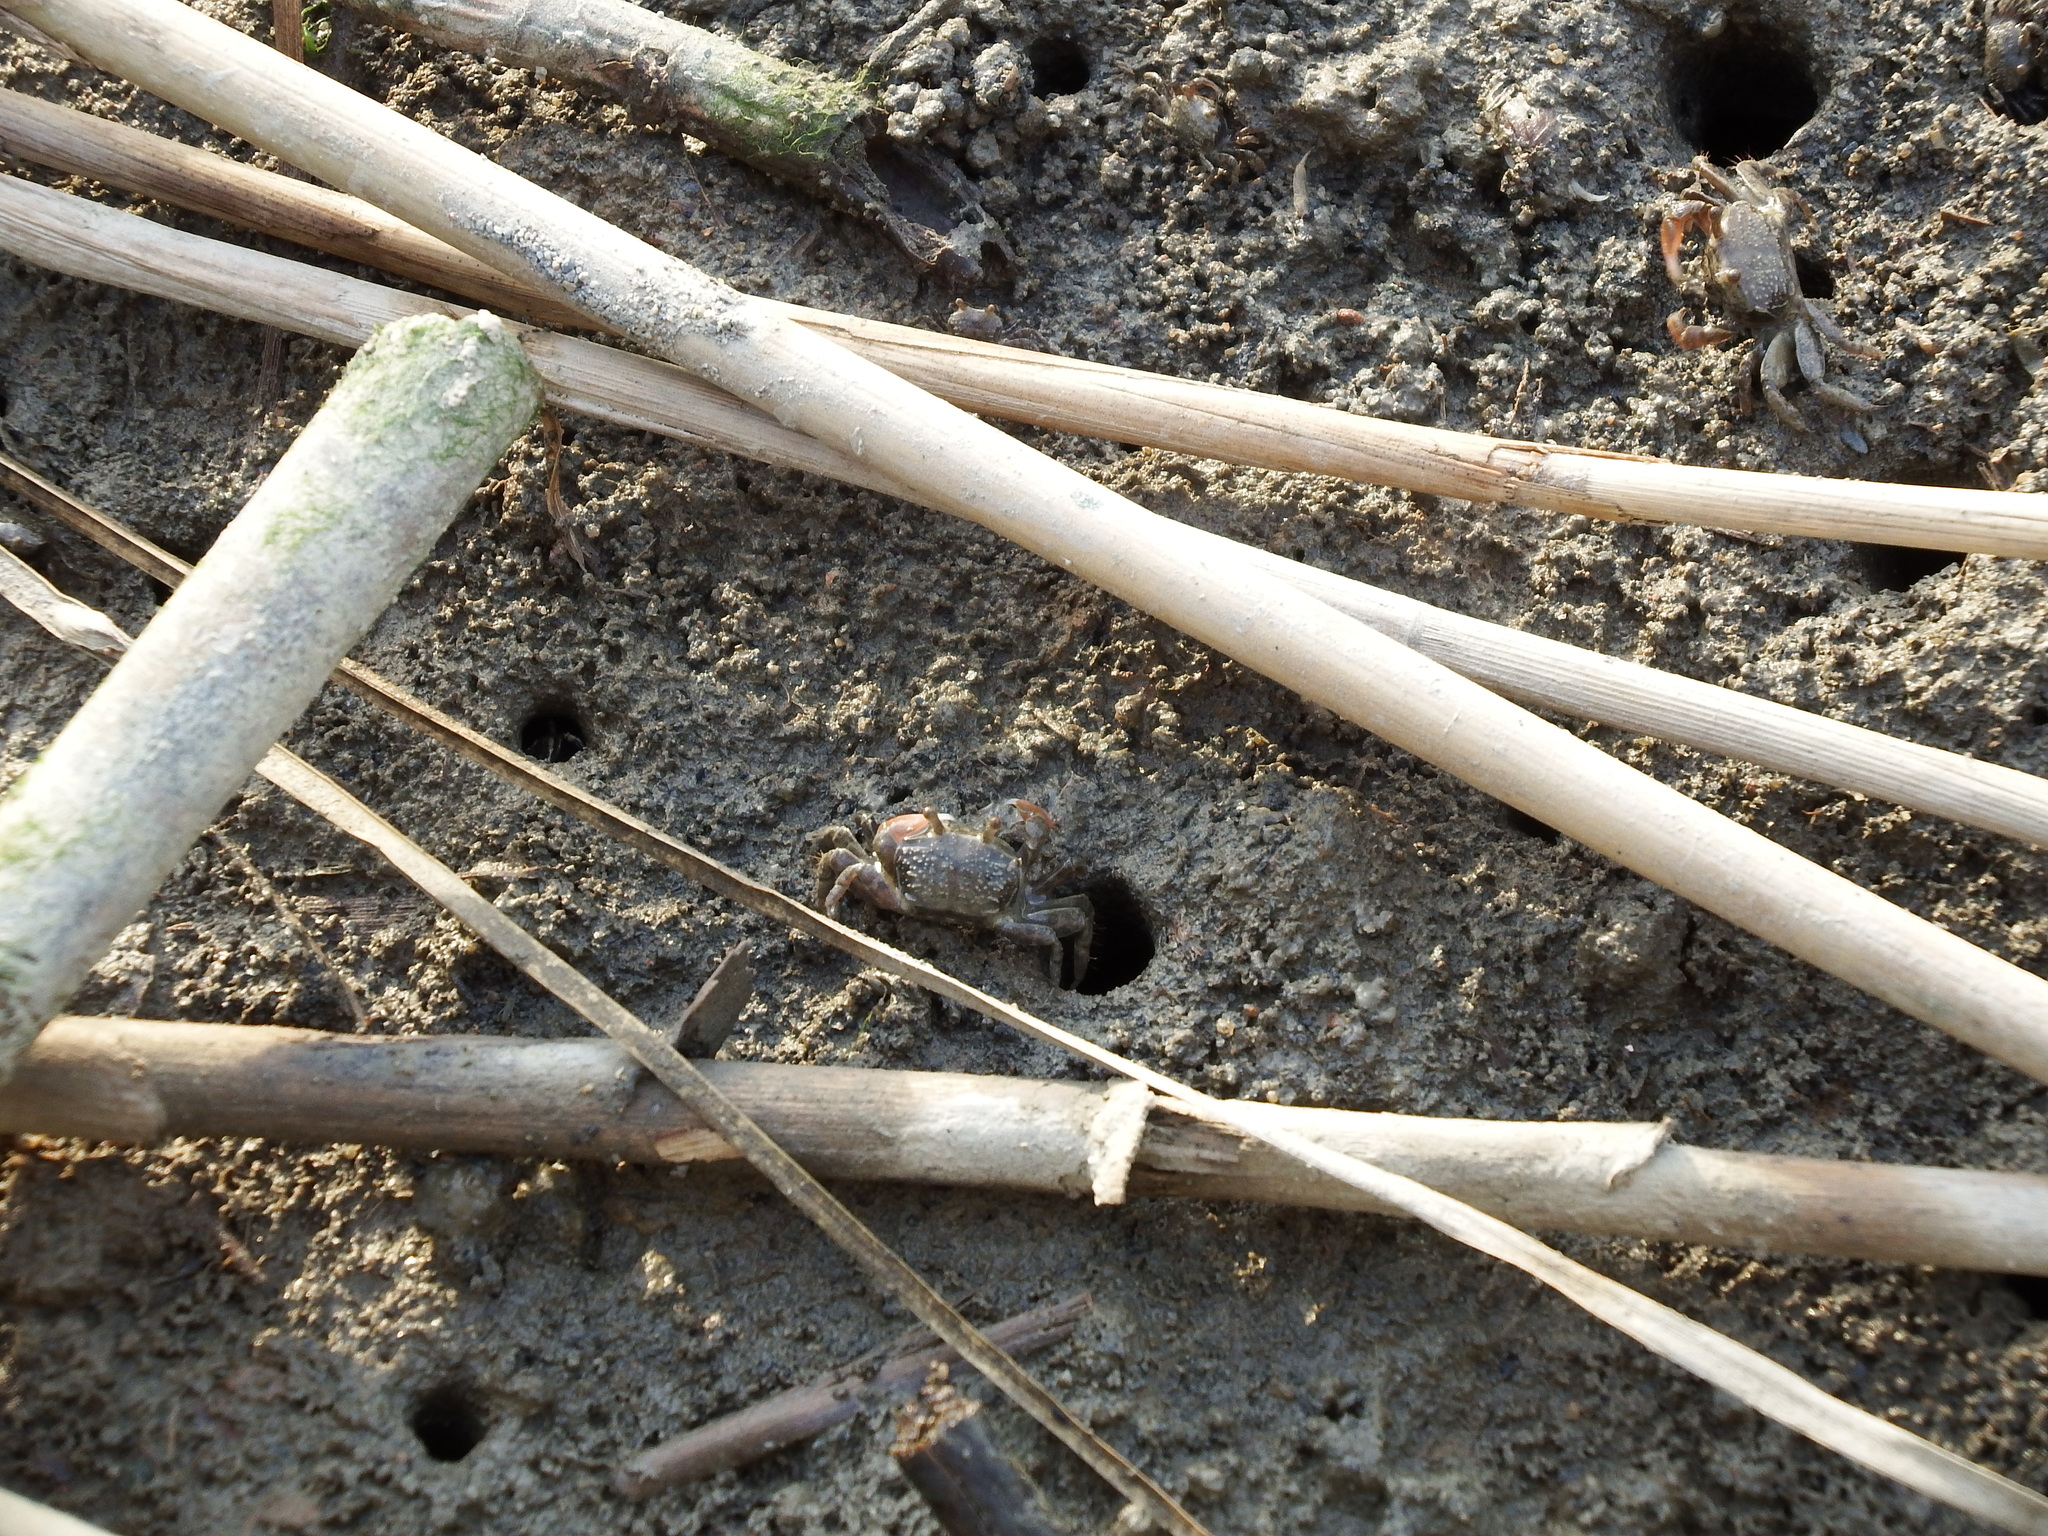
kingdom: Animalia
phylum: Arthropoda
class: Malacostraca
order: Decapoda
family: Dotillidae
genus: Ilyoplax
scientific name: Ilyoplax formosensis
